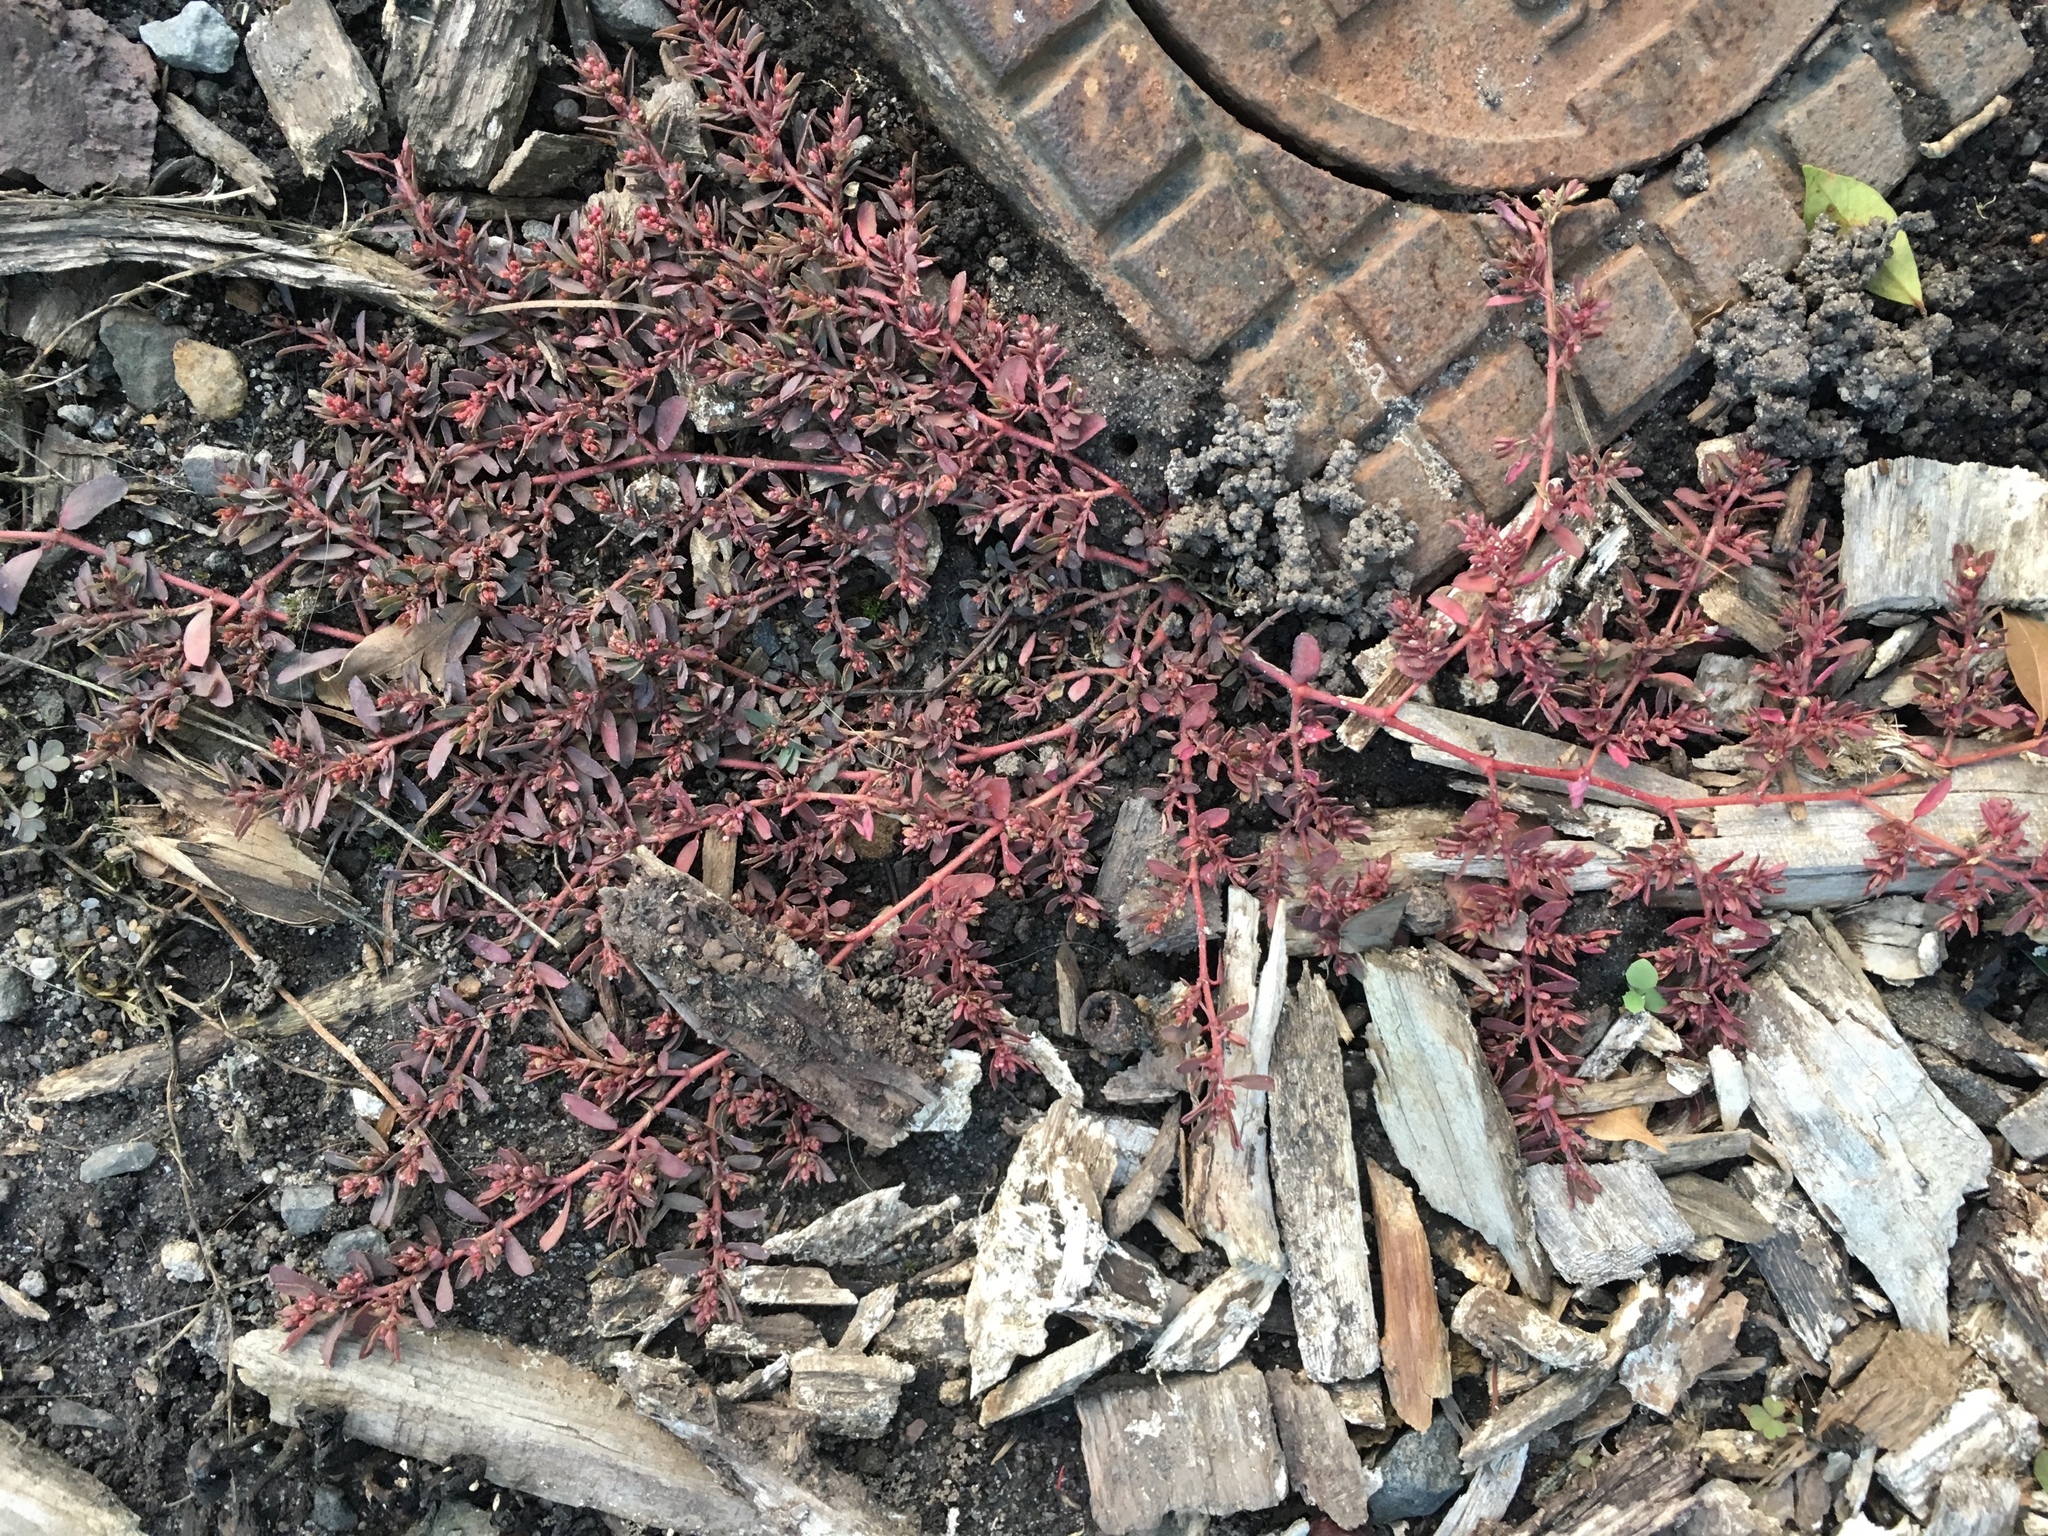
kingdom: Plantae
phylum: Tracheophyta
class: Magnoliopsida
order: Malpighiales
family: Euphorbiaceae
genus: Euphorbia
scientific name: Euphorbia maculata
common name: Spotted spurge
